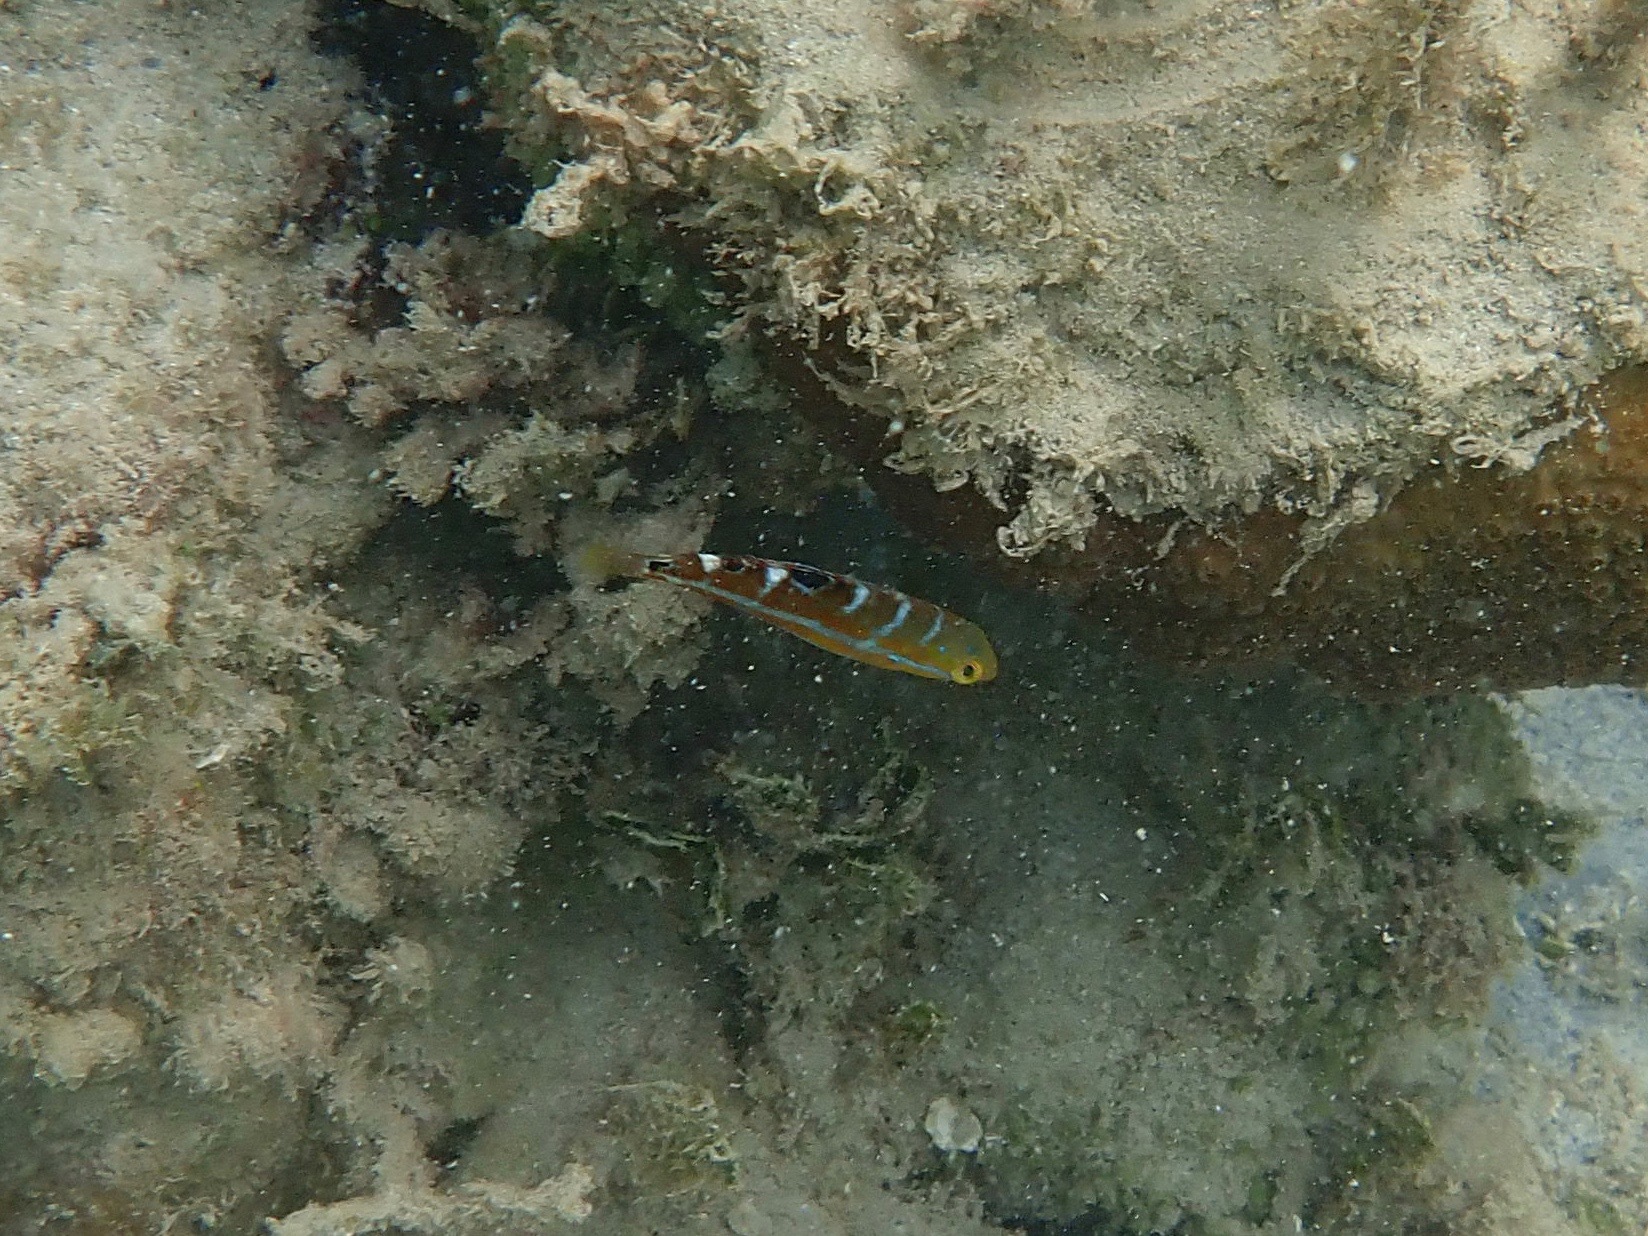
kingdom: Animalia
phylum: Chordata
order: Perciformes
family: Labridae
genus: Halichoeres
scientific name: Halichoeres radiatus
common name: Puddingwife
